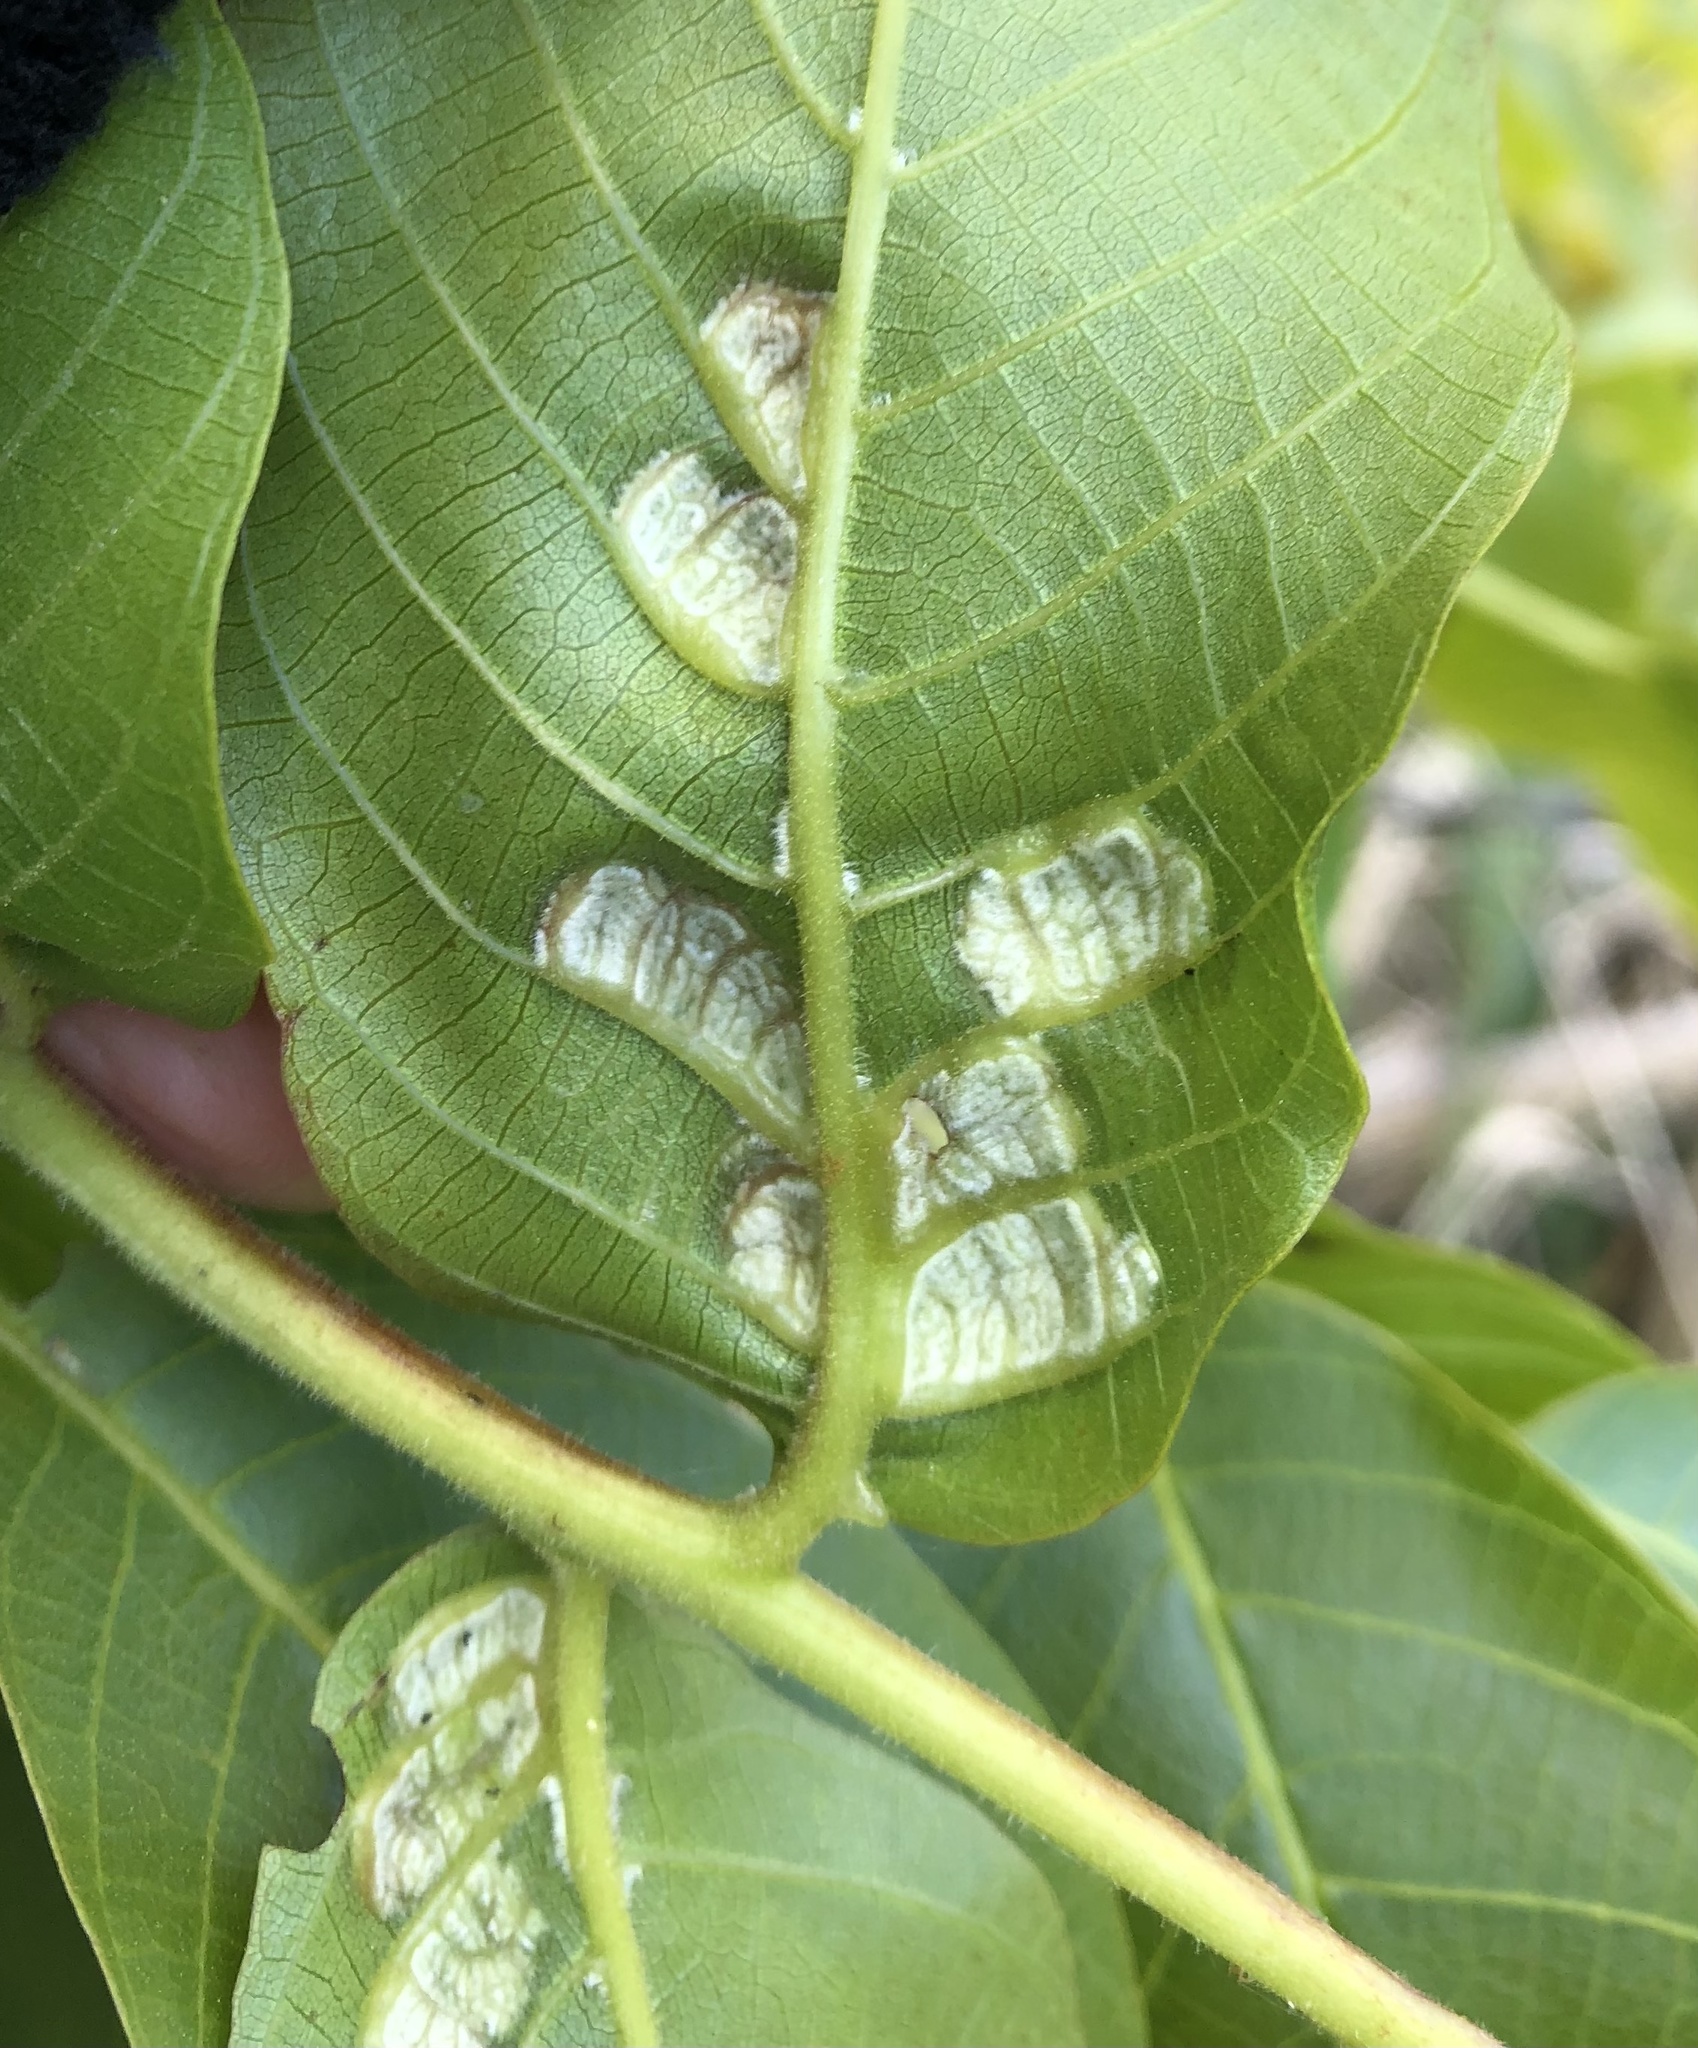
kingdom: Animalia
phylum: Arthropoda
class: Arachnida
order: Trombidiformes
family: Eriophyidae
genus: Aceria
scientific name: Aceria erinea
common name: Persian walnut erineum mite
